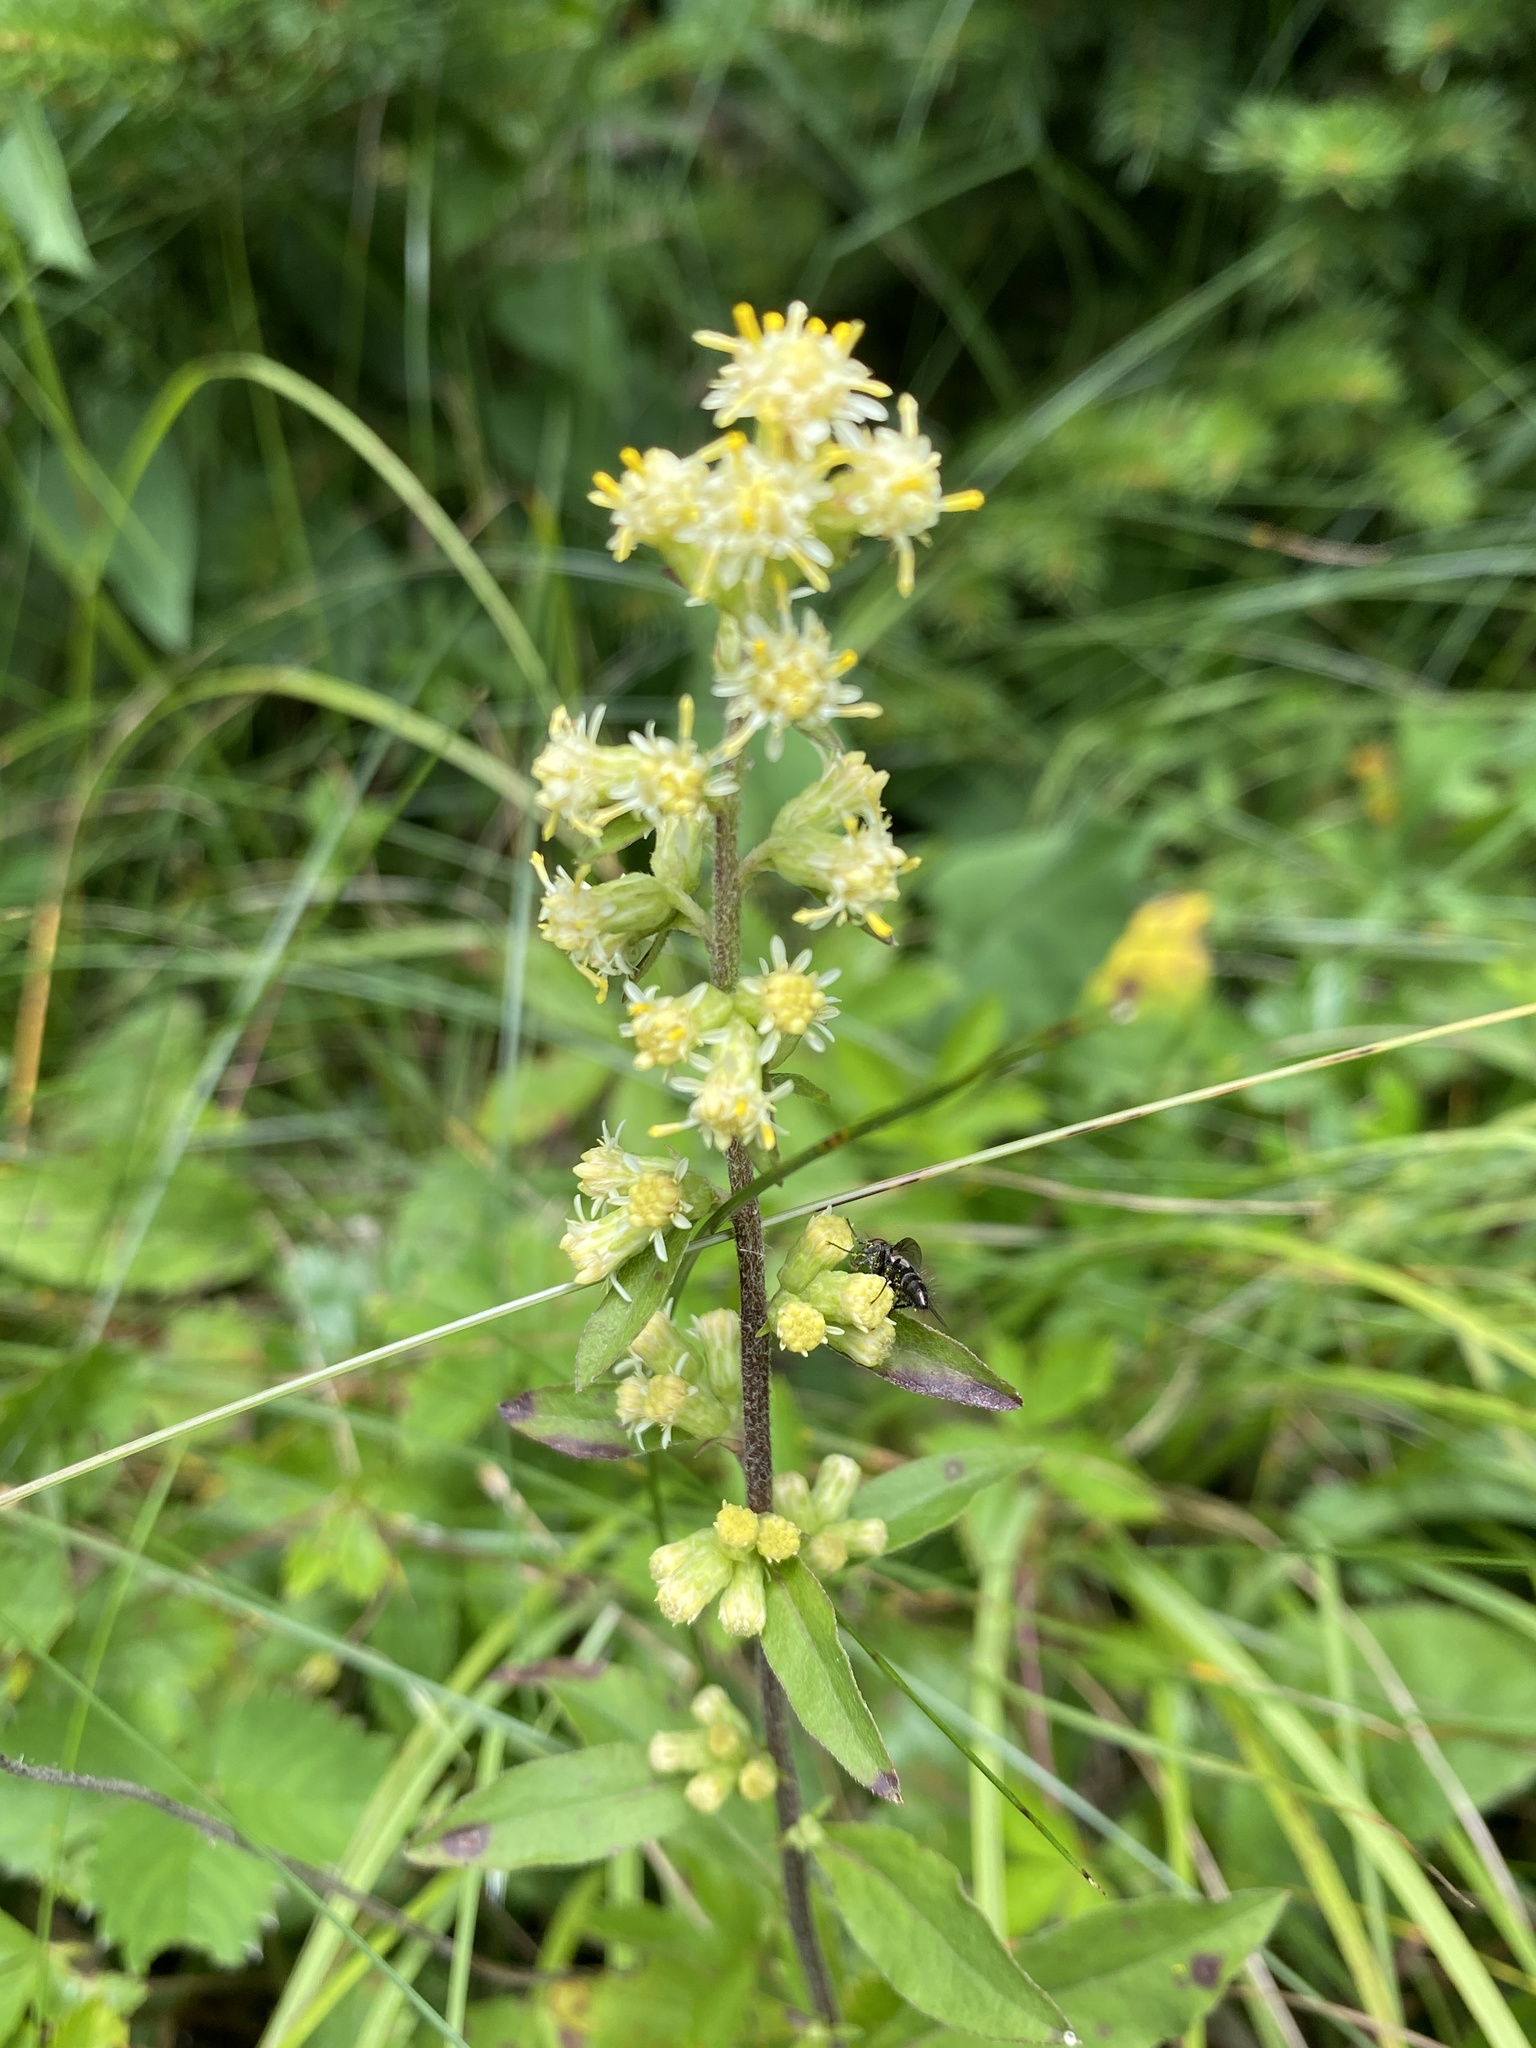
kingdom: Plantae
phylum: Tracheophyta
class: Magnoliopsida
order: Asterales
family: Asteraceae
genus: Solidago
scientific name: Solidago bicolor
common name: Silverrod
